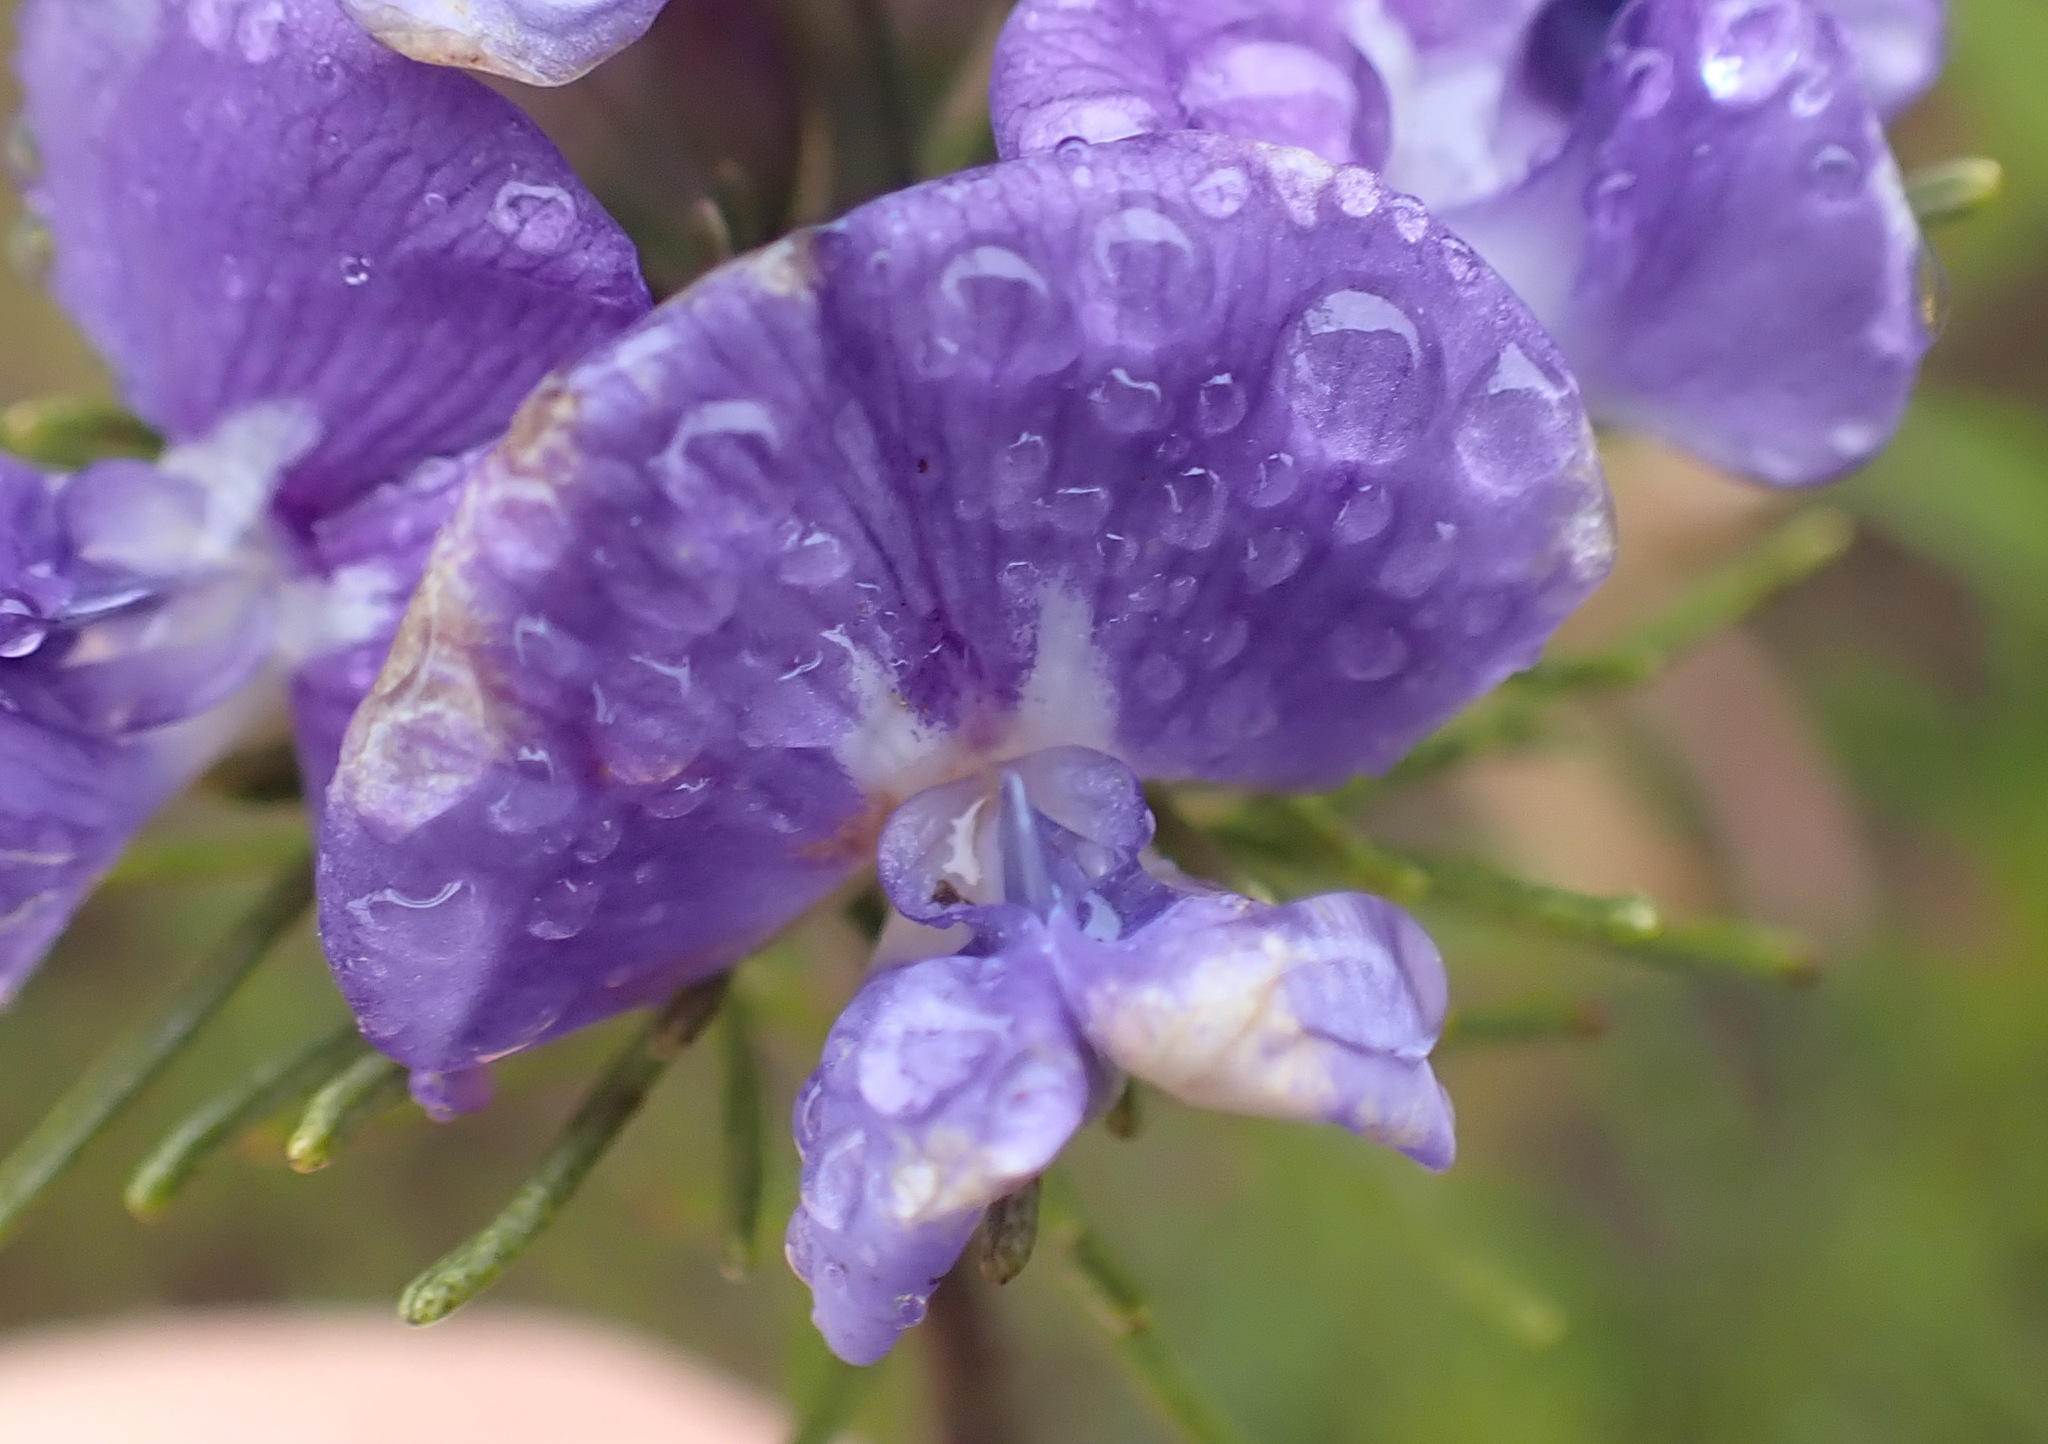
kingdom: Plantae
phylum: Tracheophyta
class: Magnoliopsida
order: Fabales
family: Fabaceae
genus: Psoralea
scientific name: Psoralea speciosa
